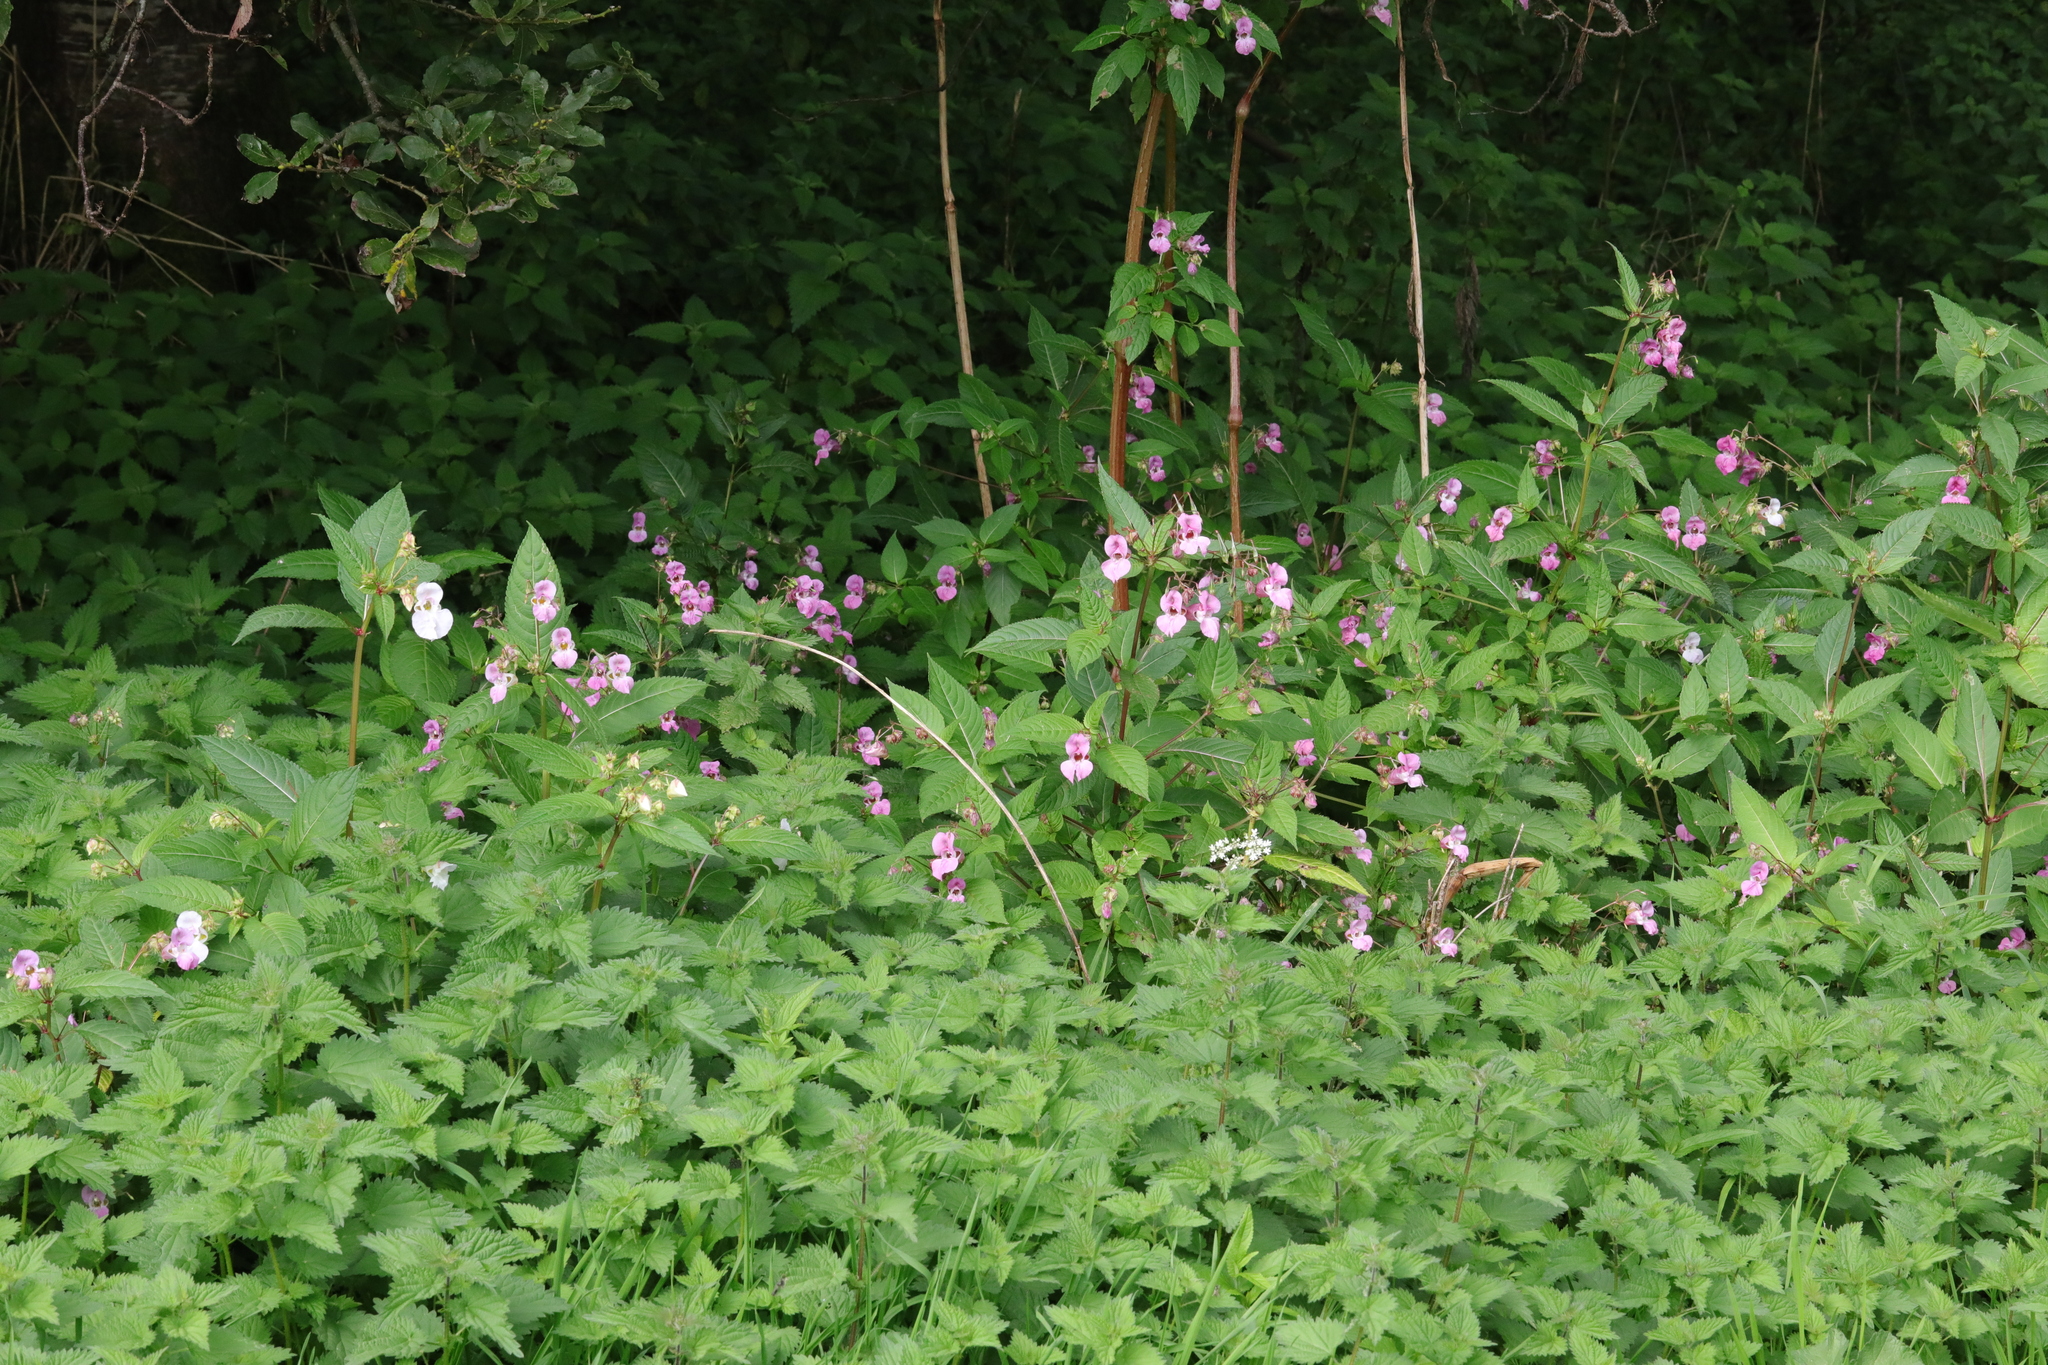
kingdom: Plantae
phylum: Tracheophyta
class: Magnoliopsida
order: Ericales
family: Balsaminaceae
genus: Impatiens
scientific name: Impatiens glandulifera
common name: Himalayan balsam
